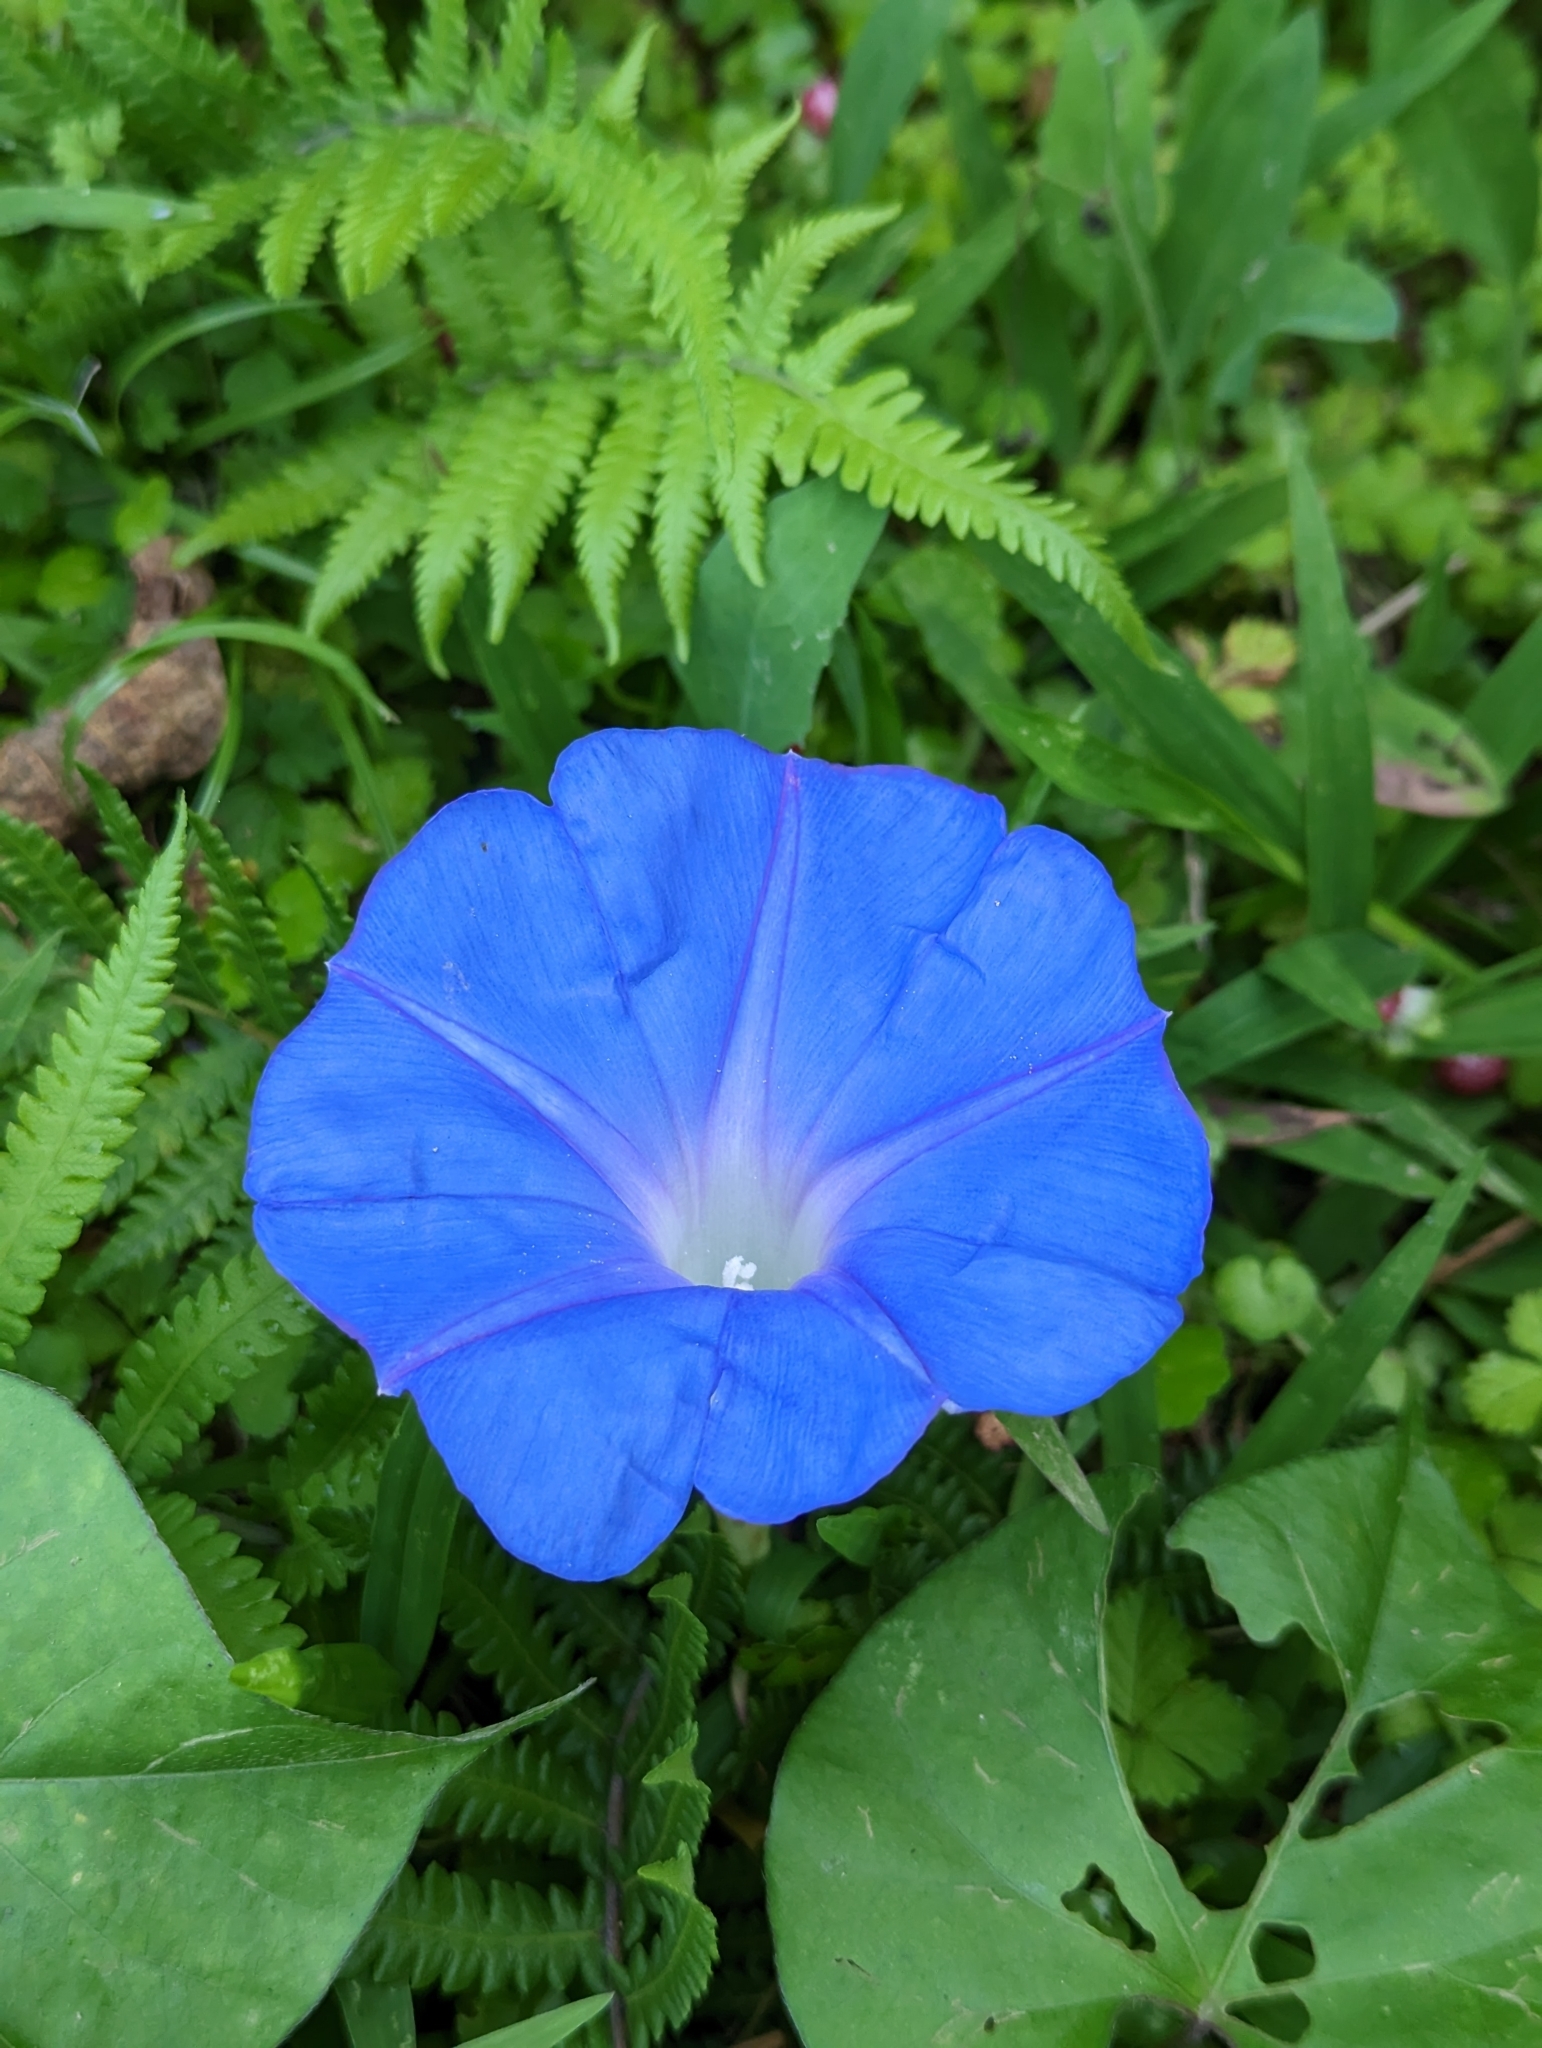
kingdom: Plantae
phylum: Tracheophyta
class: Magnoliopsida
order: Solanales
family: Convolvulaceae
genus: Ipomoea
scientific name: Ipomoea indica
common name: Blue dawnflower
